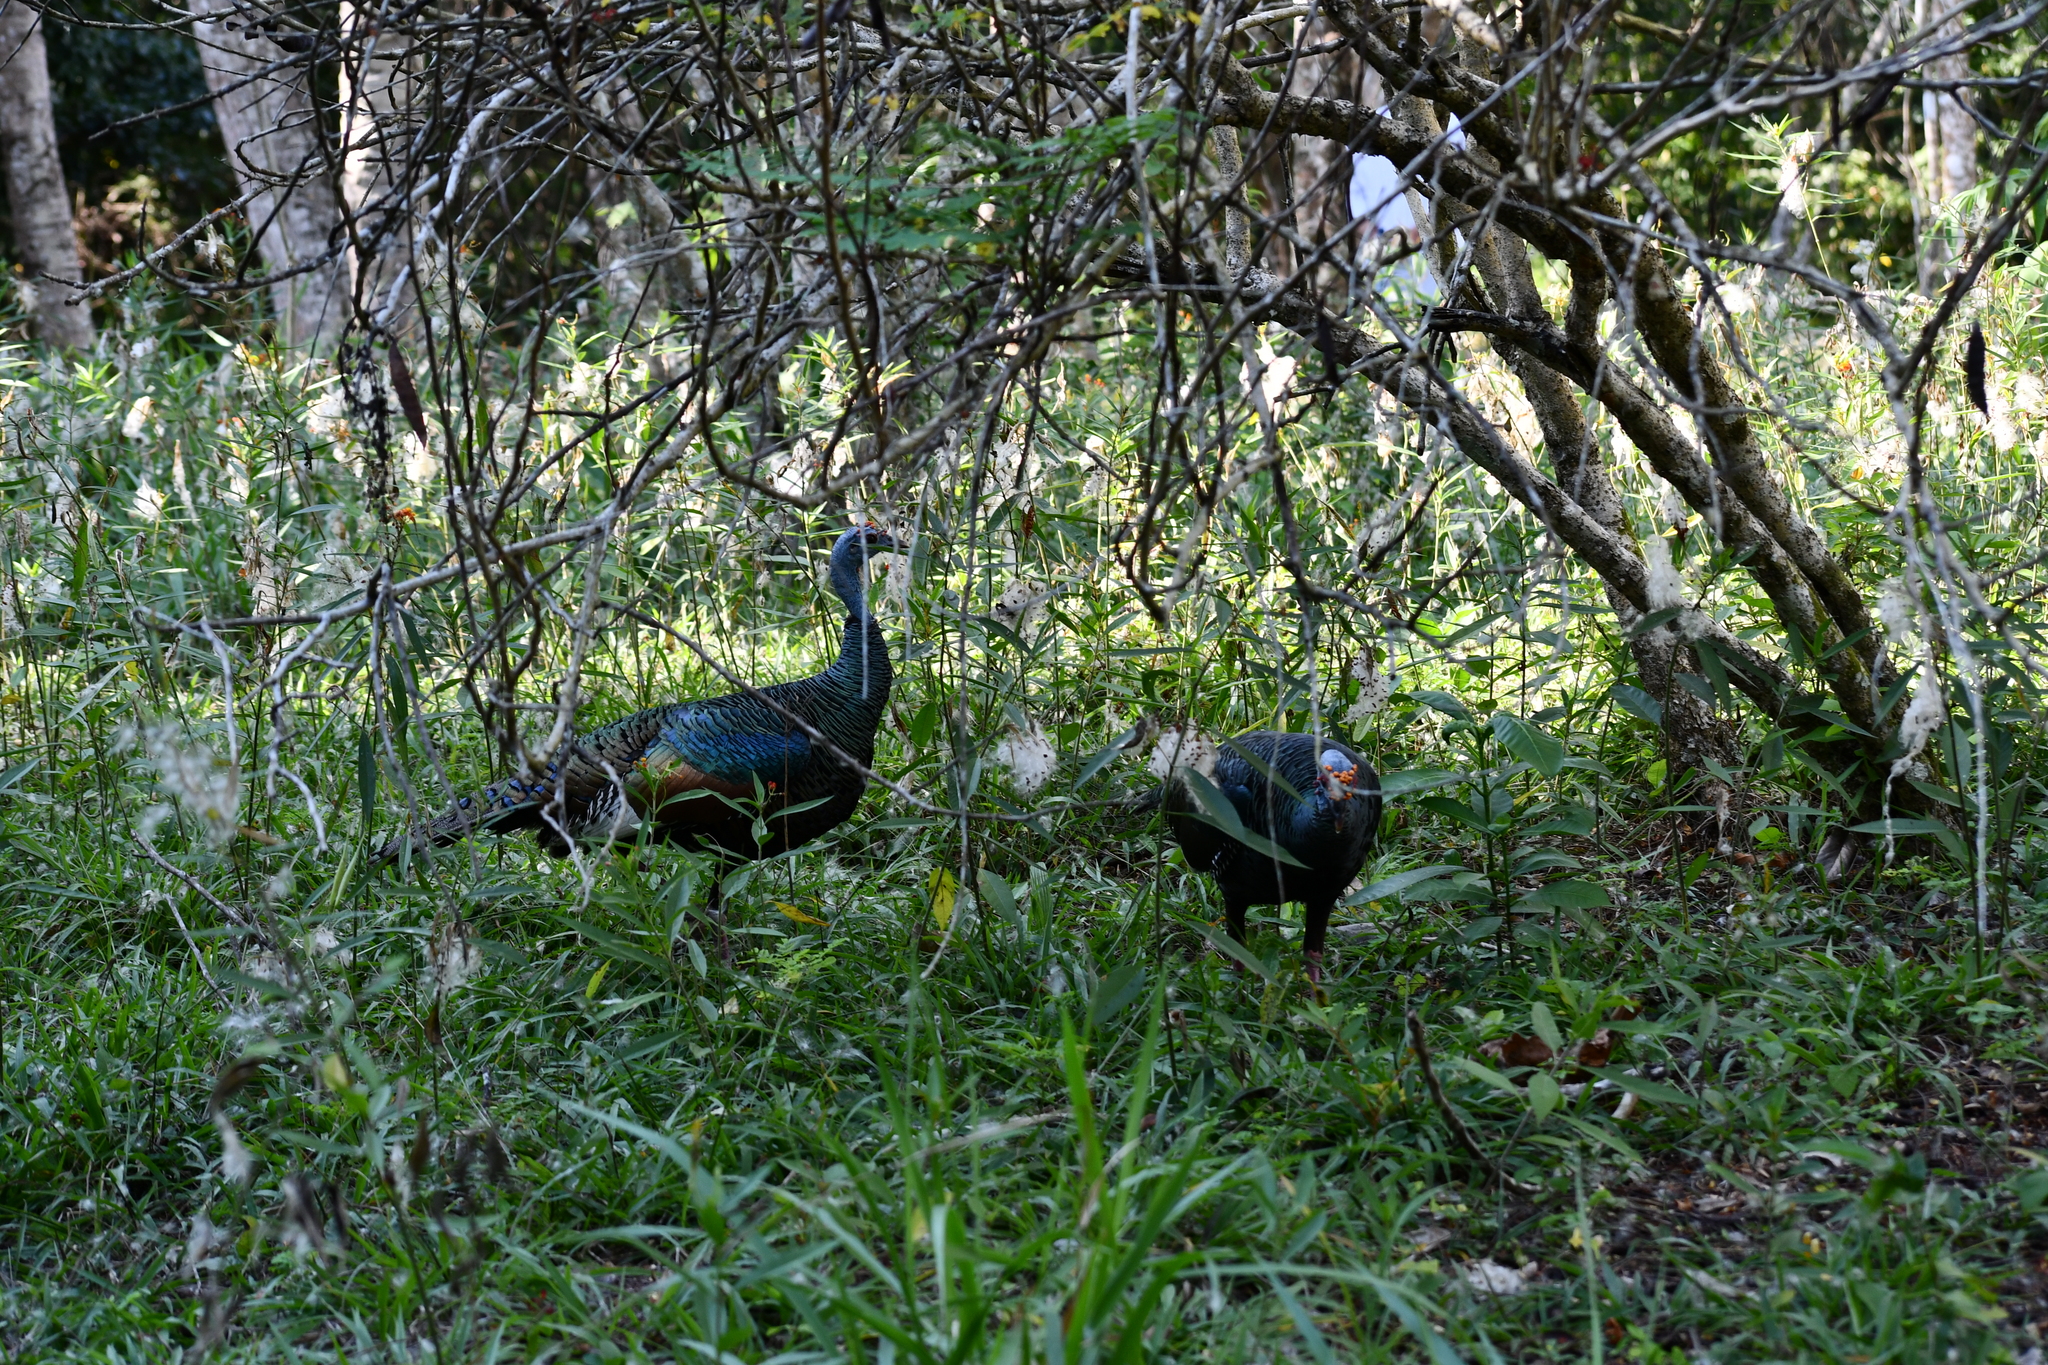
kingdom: Animalia
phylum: Chordata
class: Aves
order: Galliformes
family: Phasianidae
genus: Meleagris
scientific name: Meleagris ocellata
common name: Ocellated turkey
